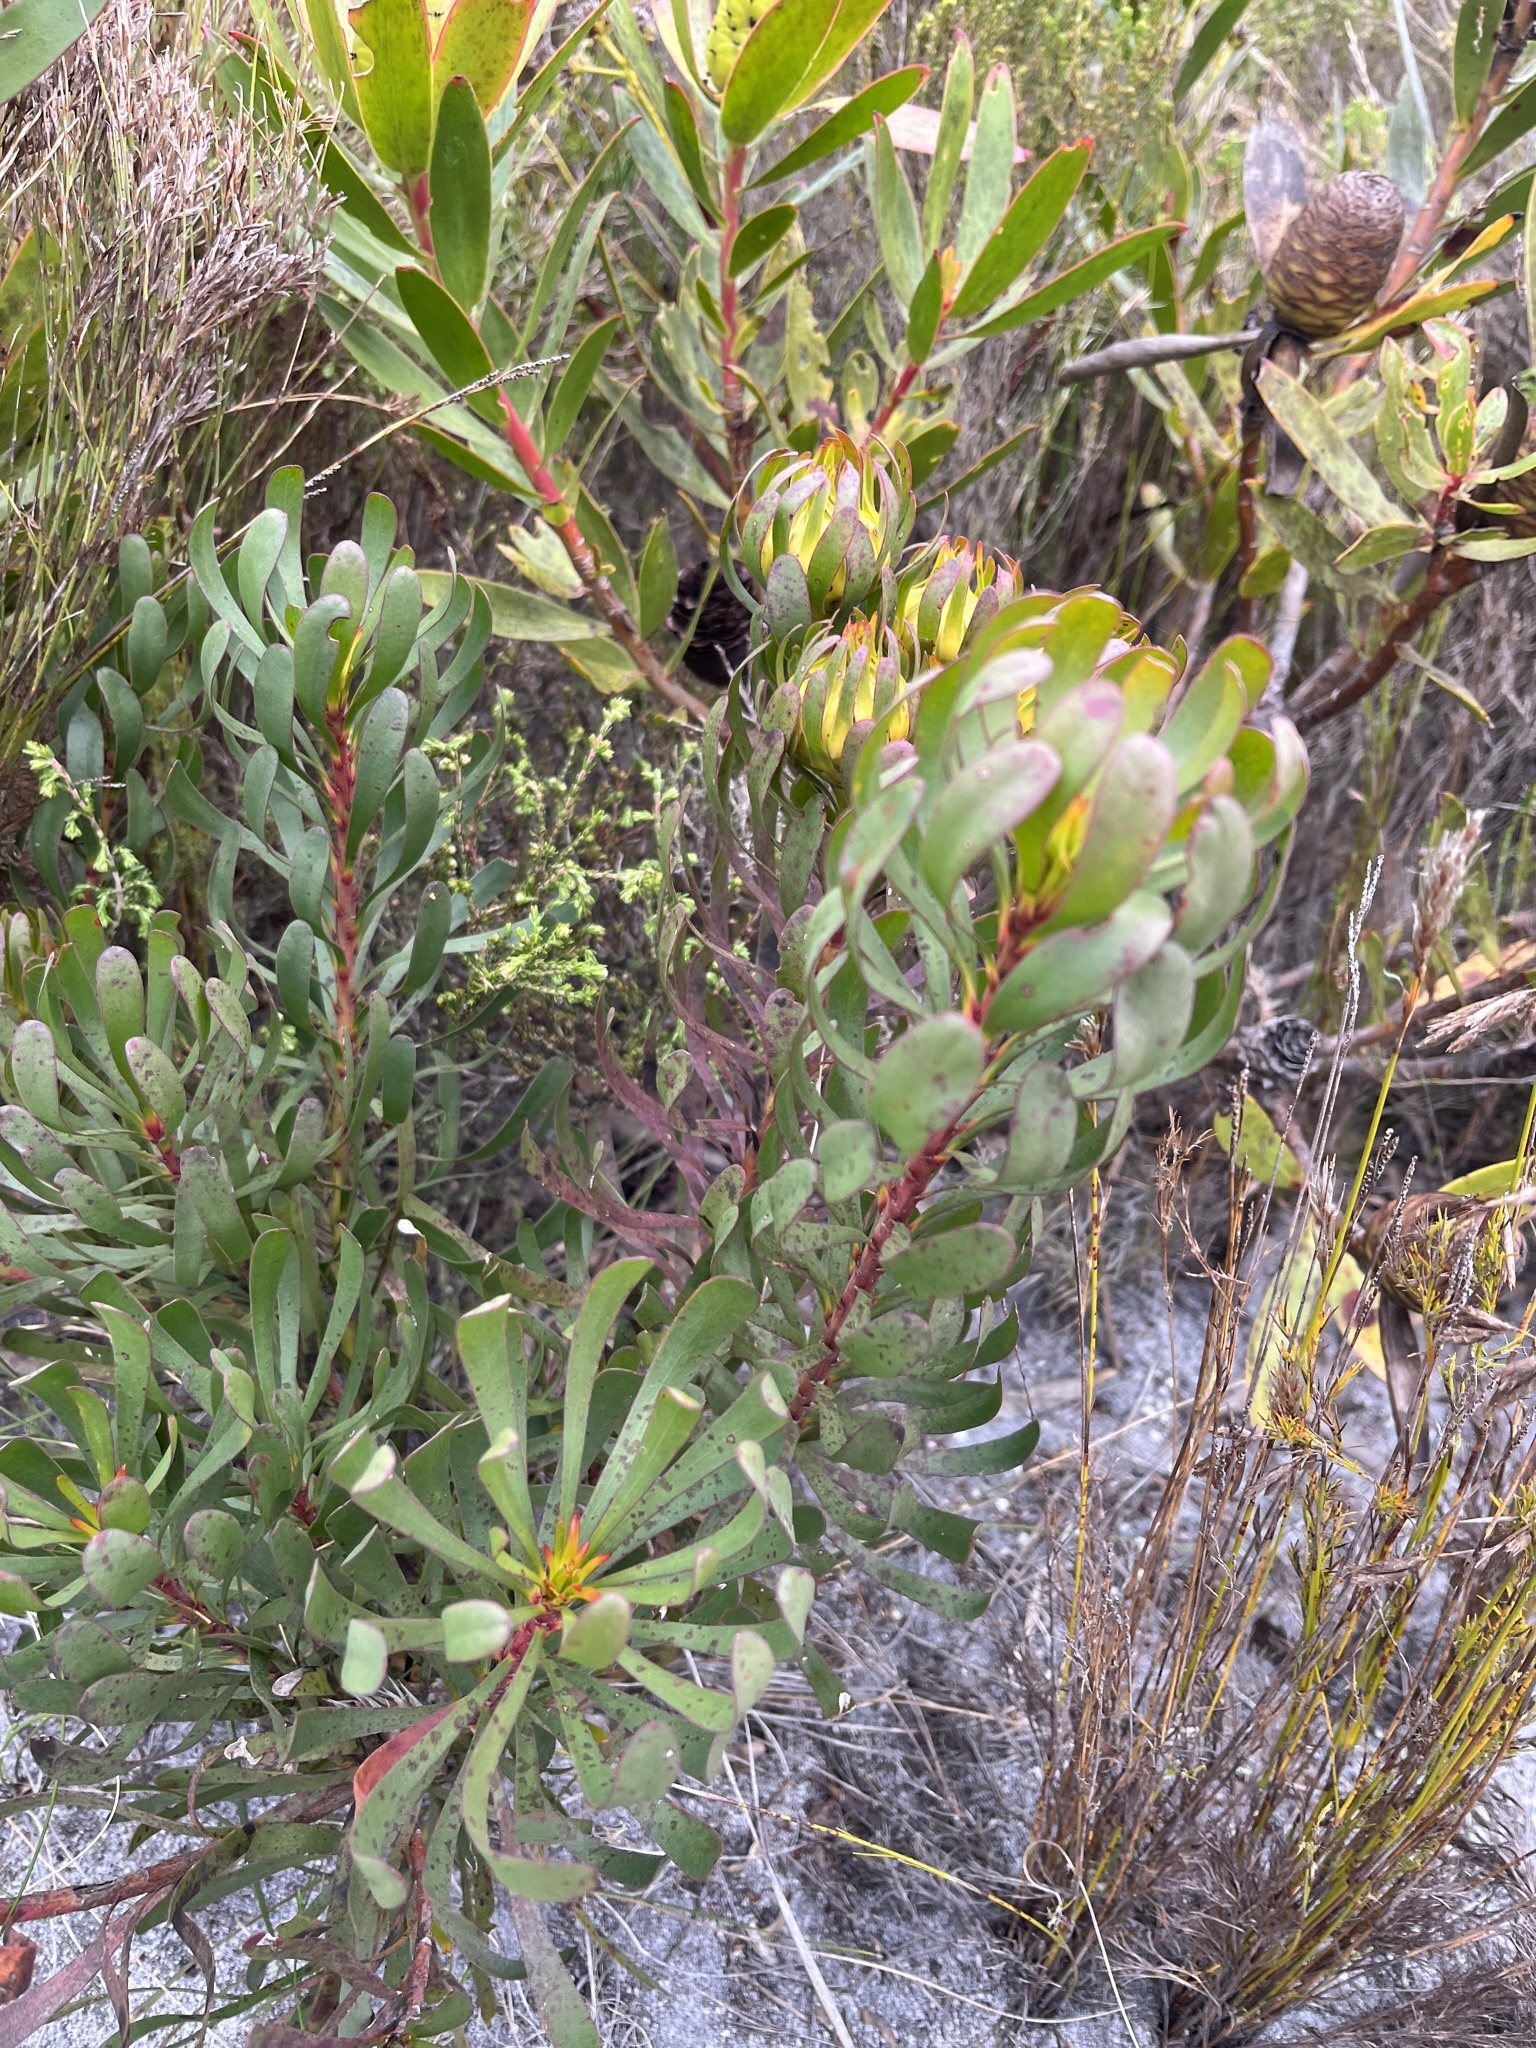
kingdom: Plantae
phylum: Tracheophyta
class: Magnoliopsida
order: Proteales
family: Proteaceae
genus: Aulax
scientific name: Aulax umbellata
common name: Broad-leaf featherbush
